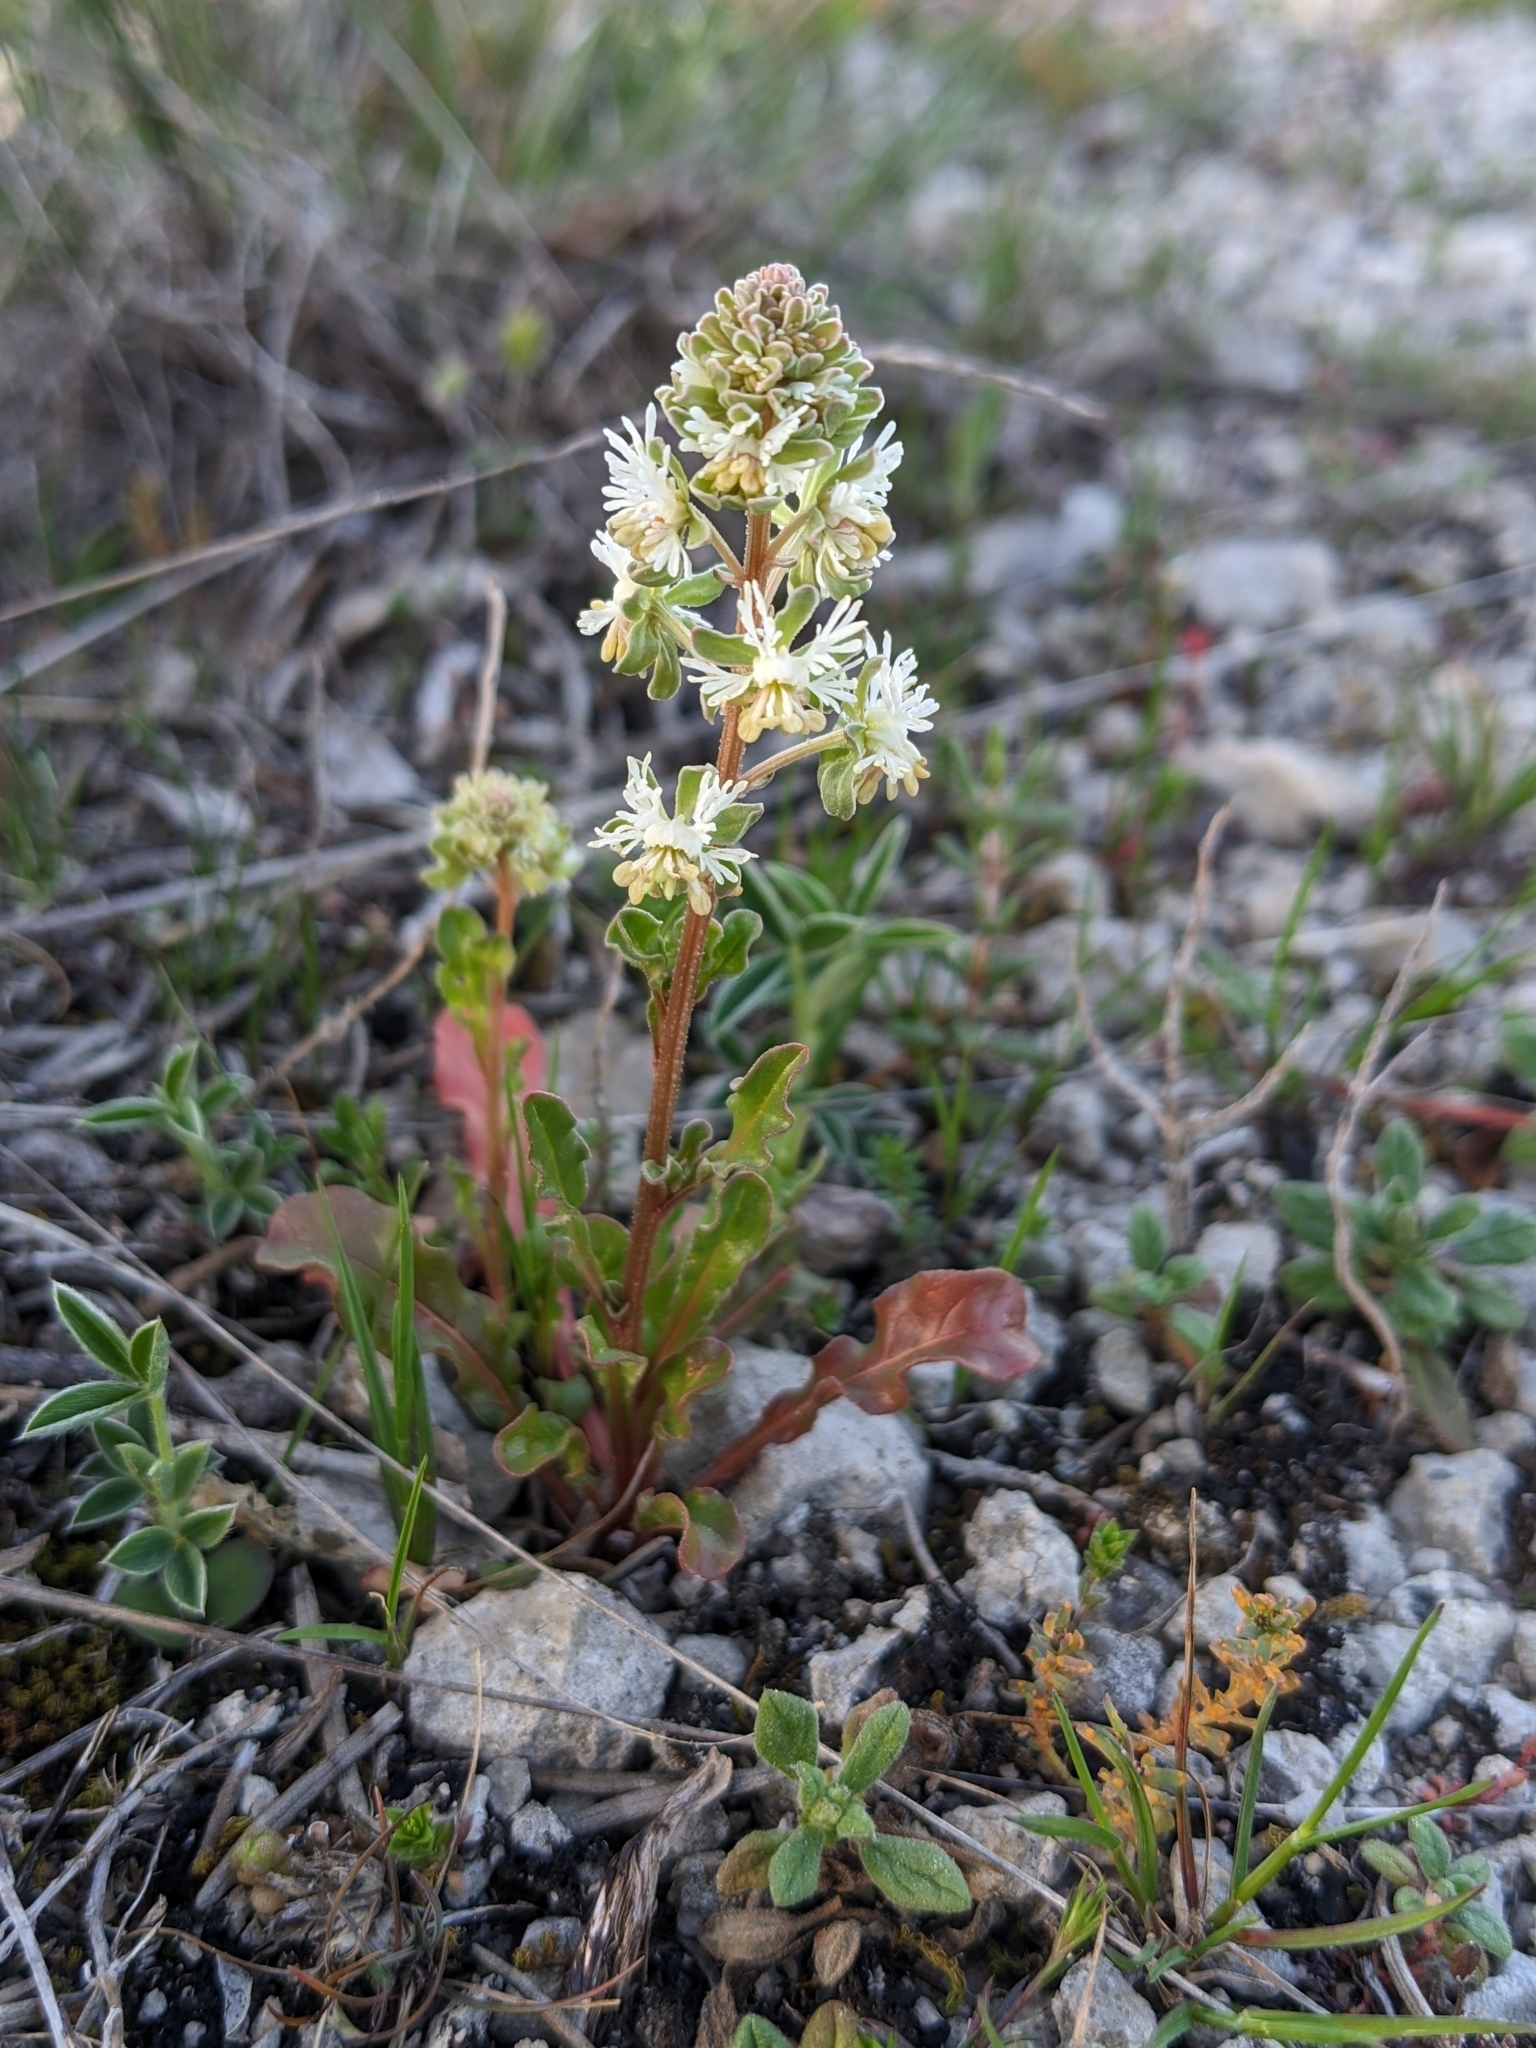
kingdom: Plantae
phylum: Tracheophyta
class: Magnoliopsida
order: Brassicales
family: Resedaceae
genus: Reseda
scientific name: Reseda phyteuma
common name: Corn mignonette
